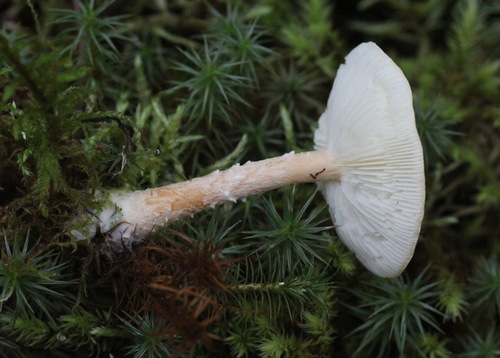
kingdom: Fungi
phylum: Basidiomycota
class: Agaricomycetes
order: Agaricales
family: Agaricaceae
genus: Cystodermella
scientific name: Cystodermella adnatifolia
